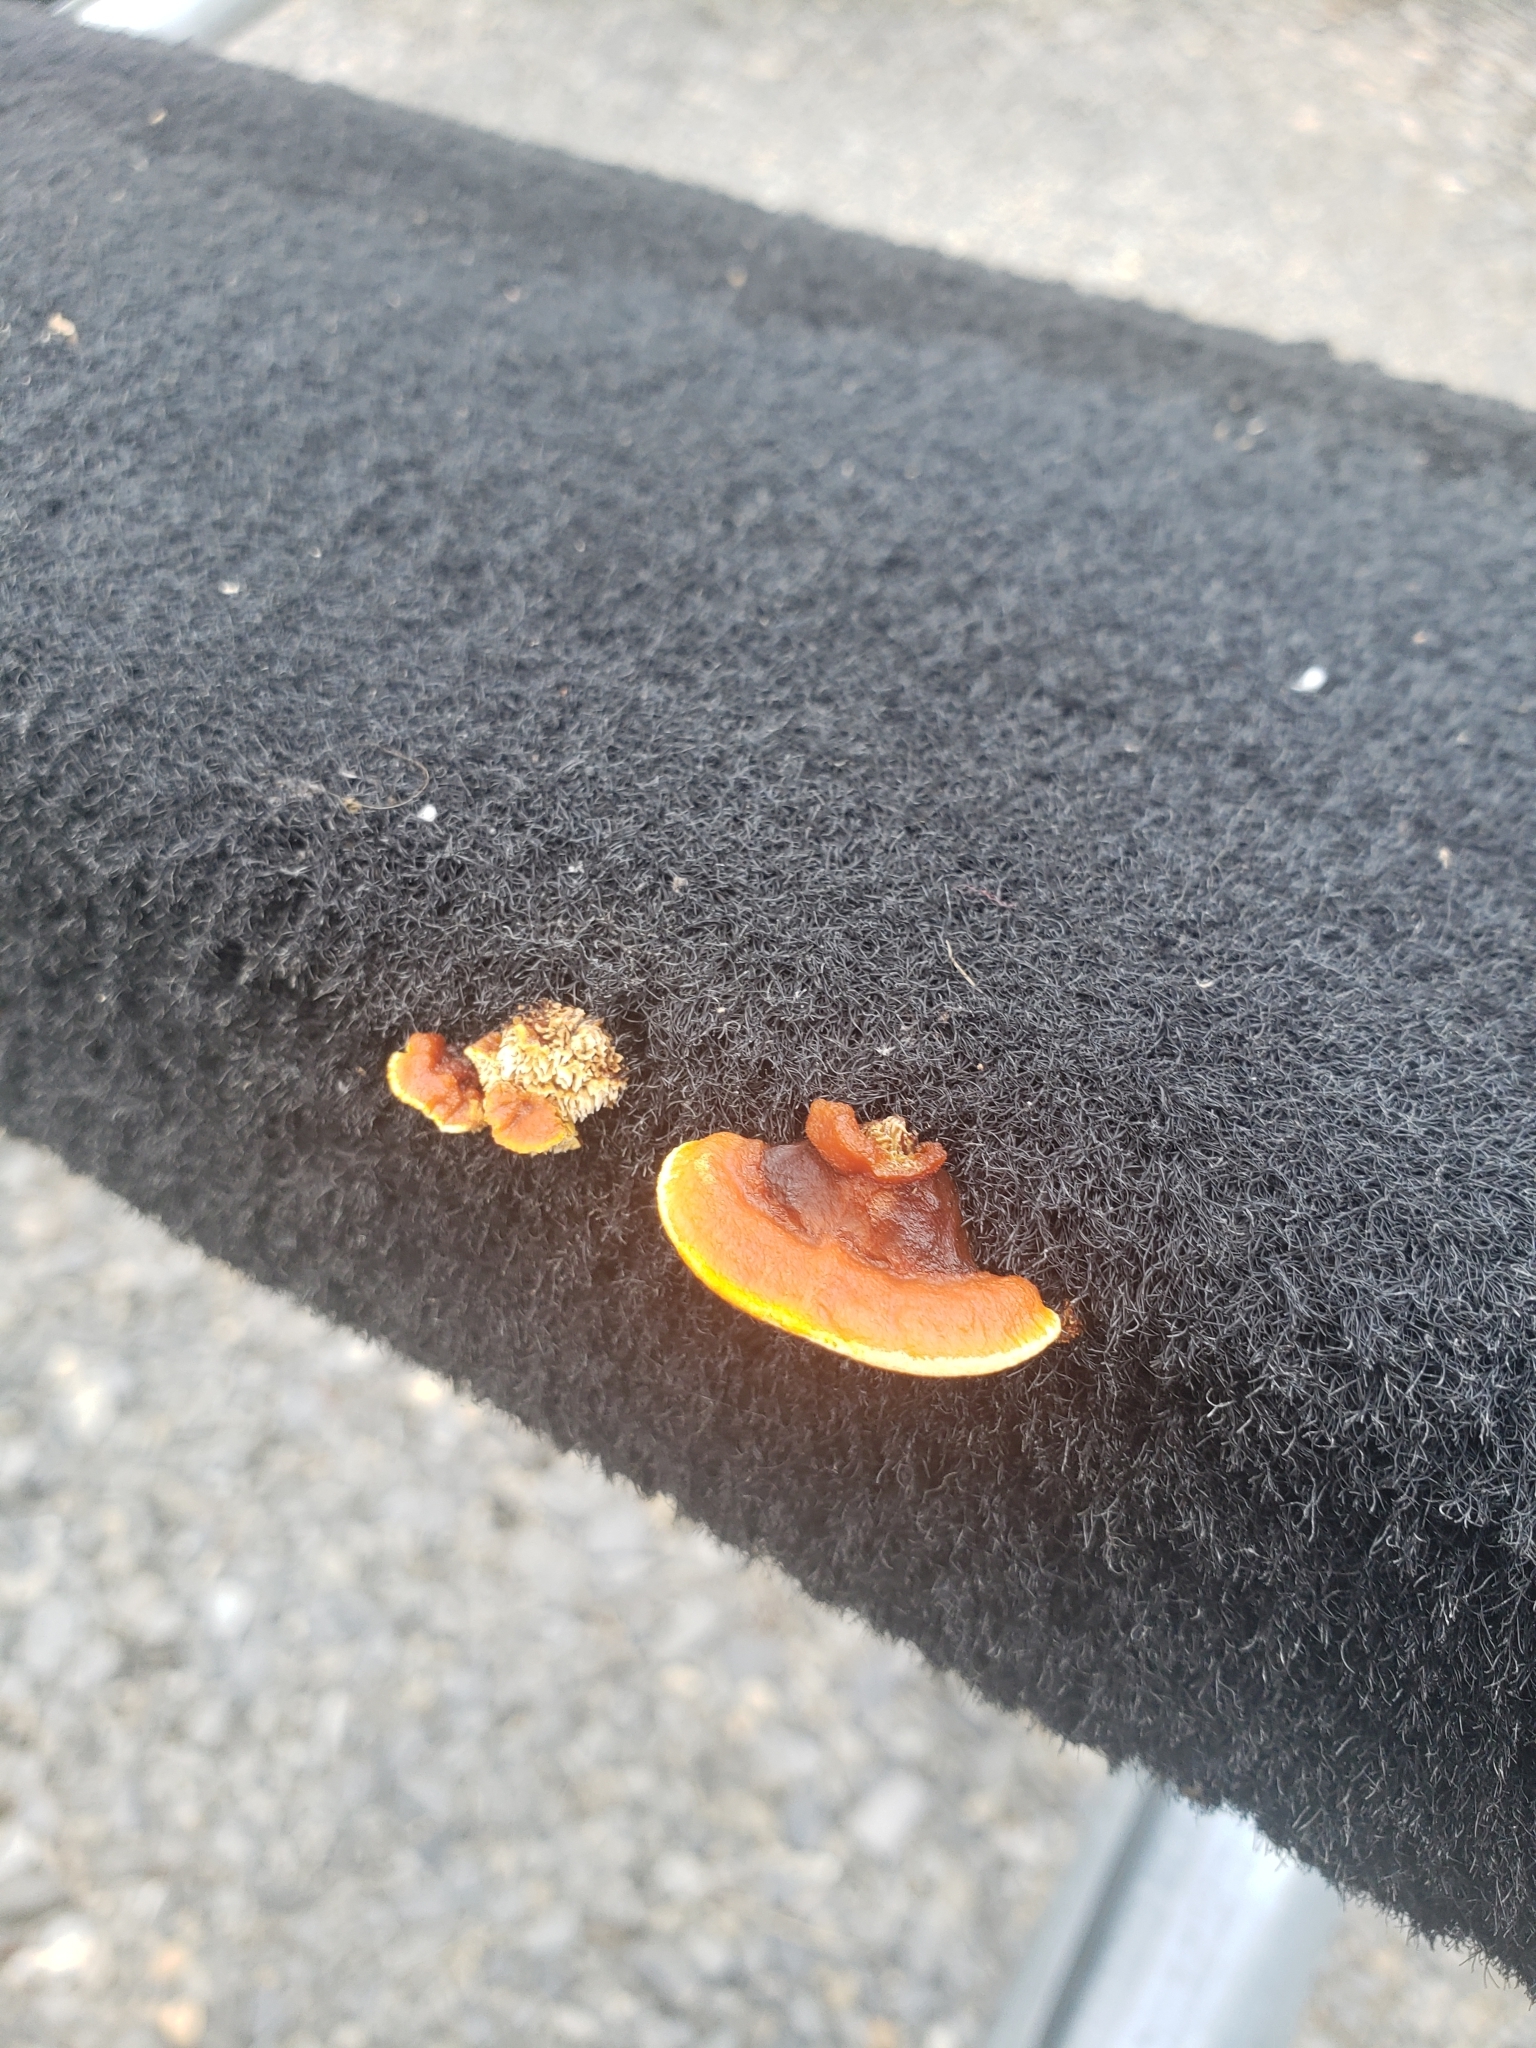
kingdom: Fungi
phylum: Basidiomycota
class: Agaricomycetes
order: Gloeophyllales
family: Gloeophyllaceae
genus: Gloeophyllum
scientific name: Gloeophyllum sepiarium
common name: Conifer mazegill
